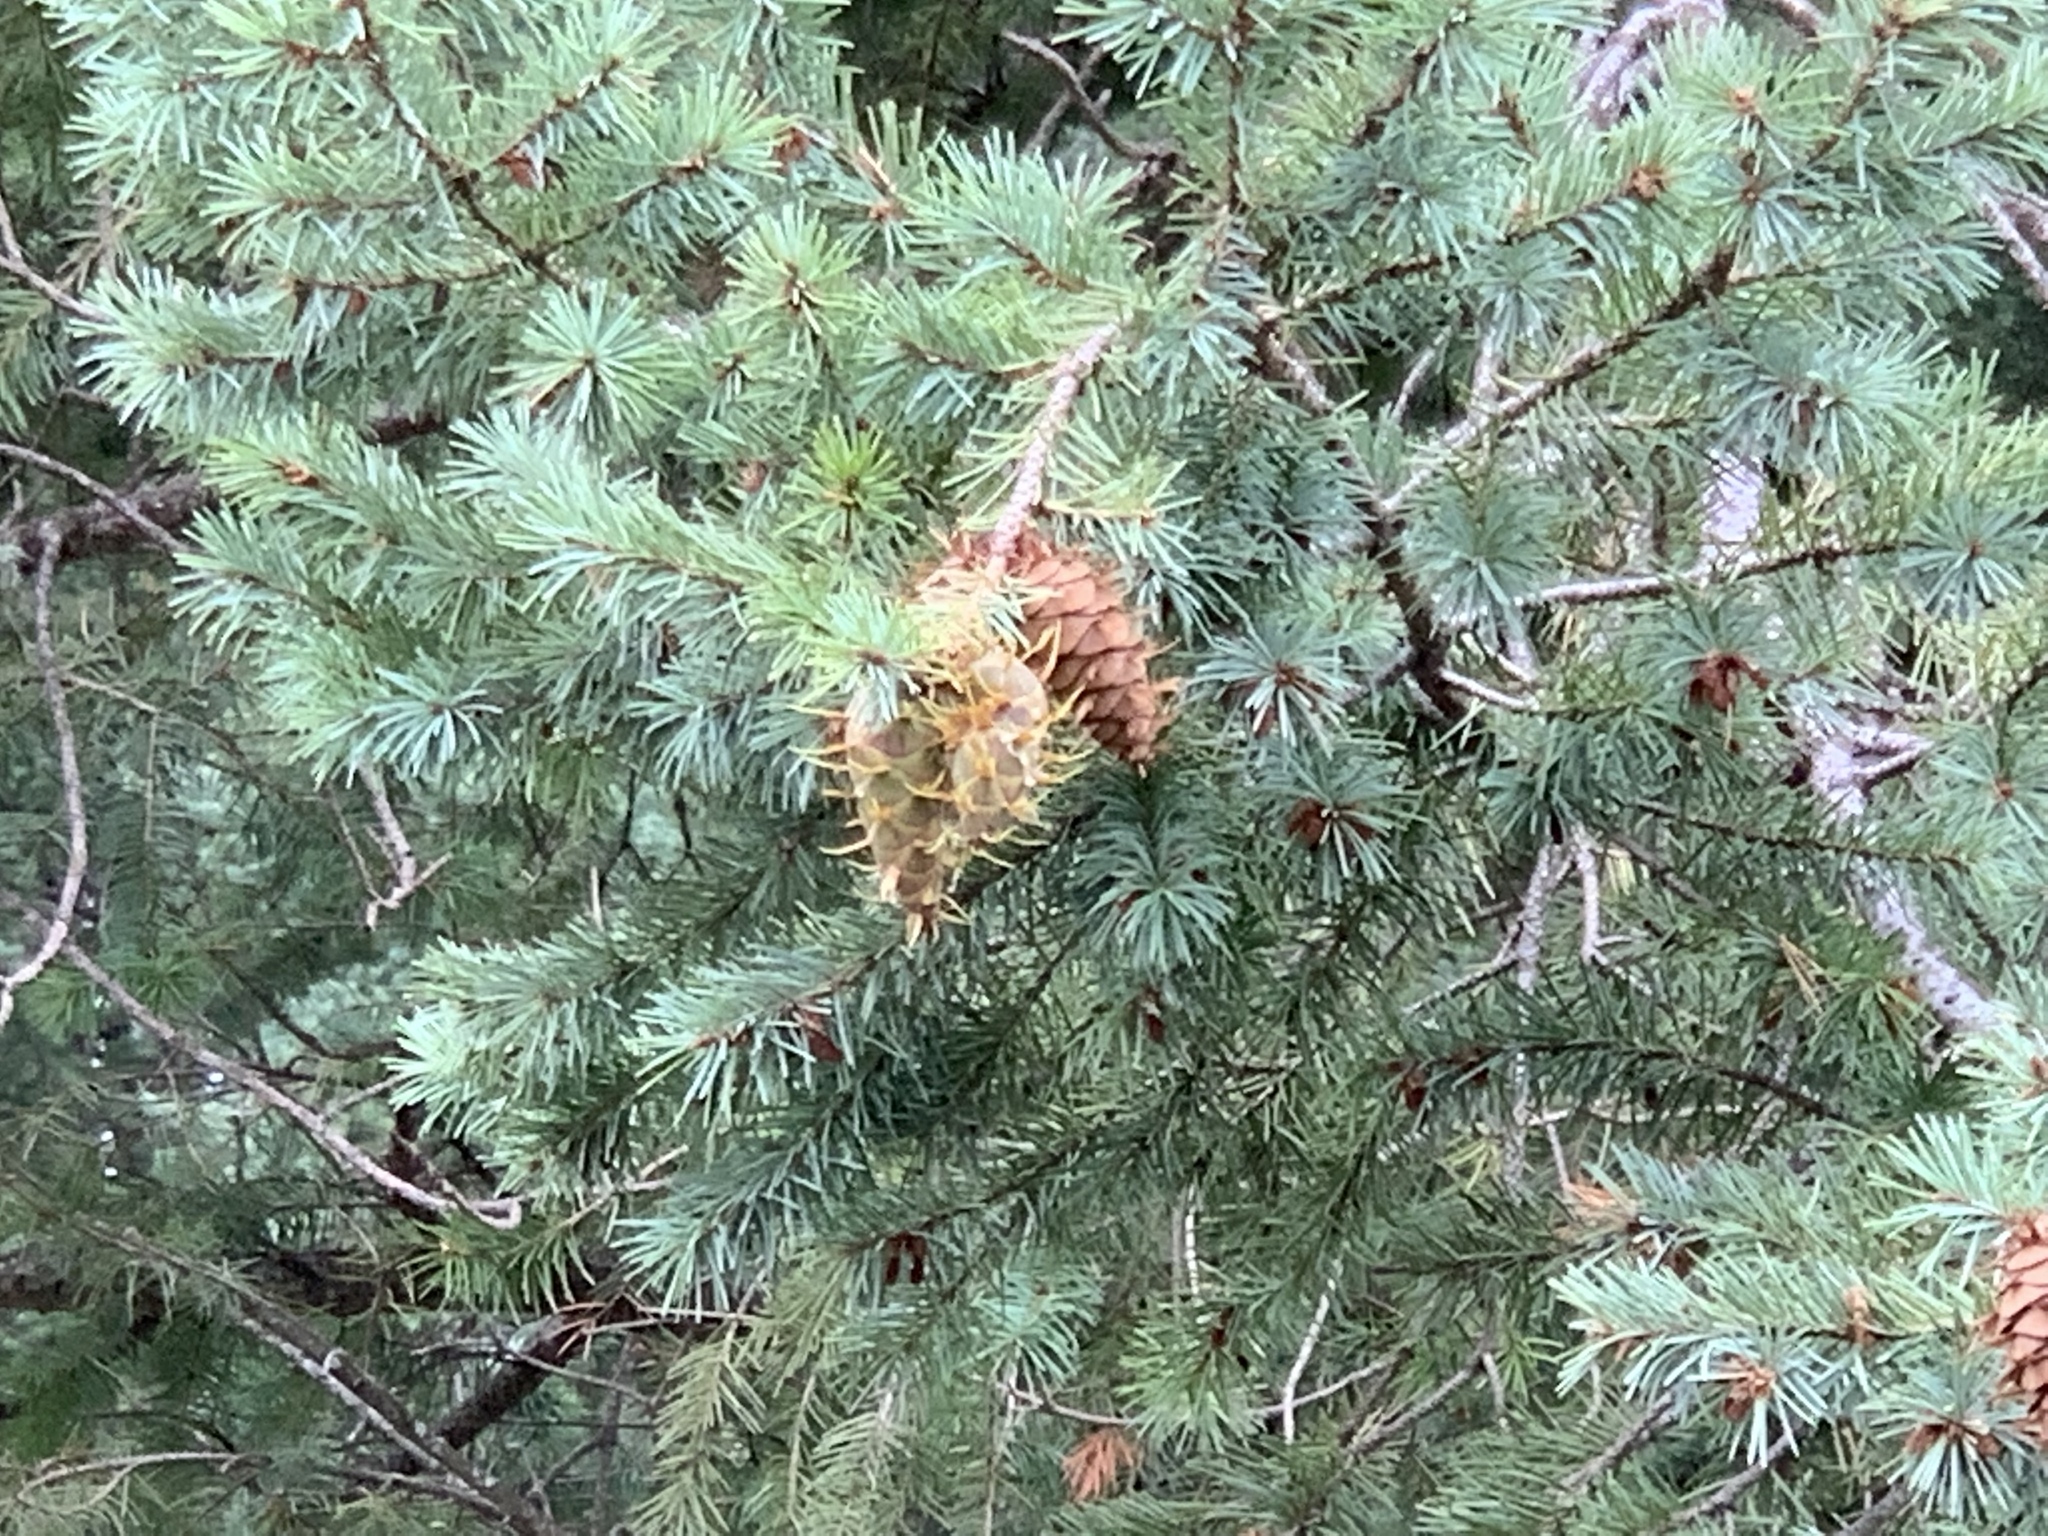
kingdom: Plantae
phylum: Tracheophyta
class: Pinopsida
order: Pinales
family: Pinaceae
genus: Pseudotsuga
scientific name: Pseudotsuga menziesii
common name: Douglas fir
